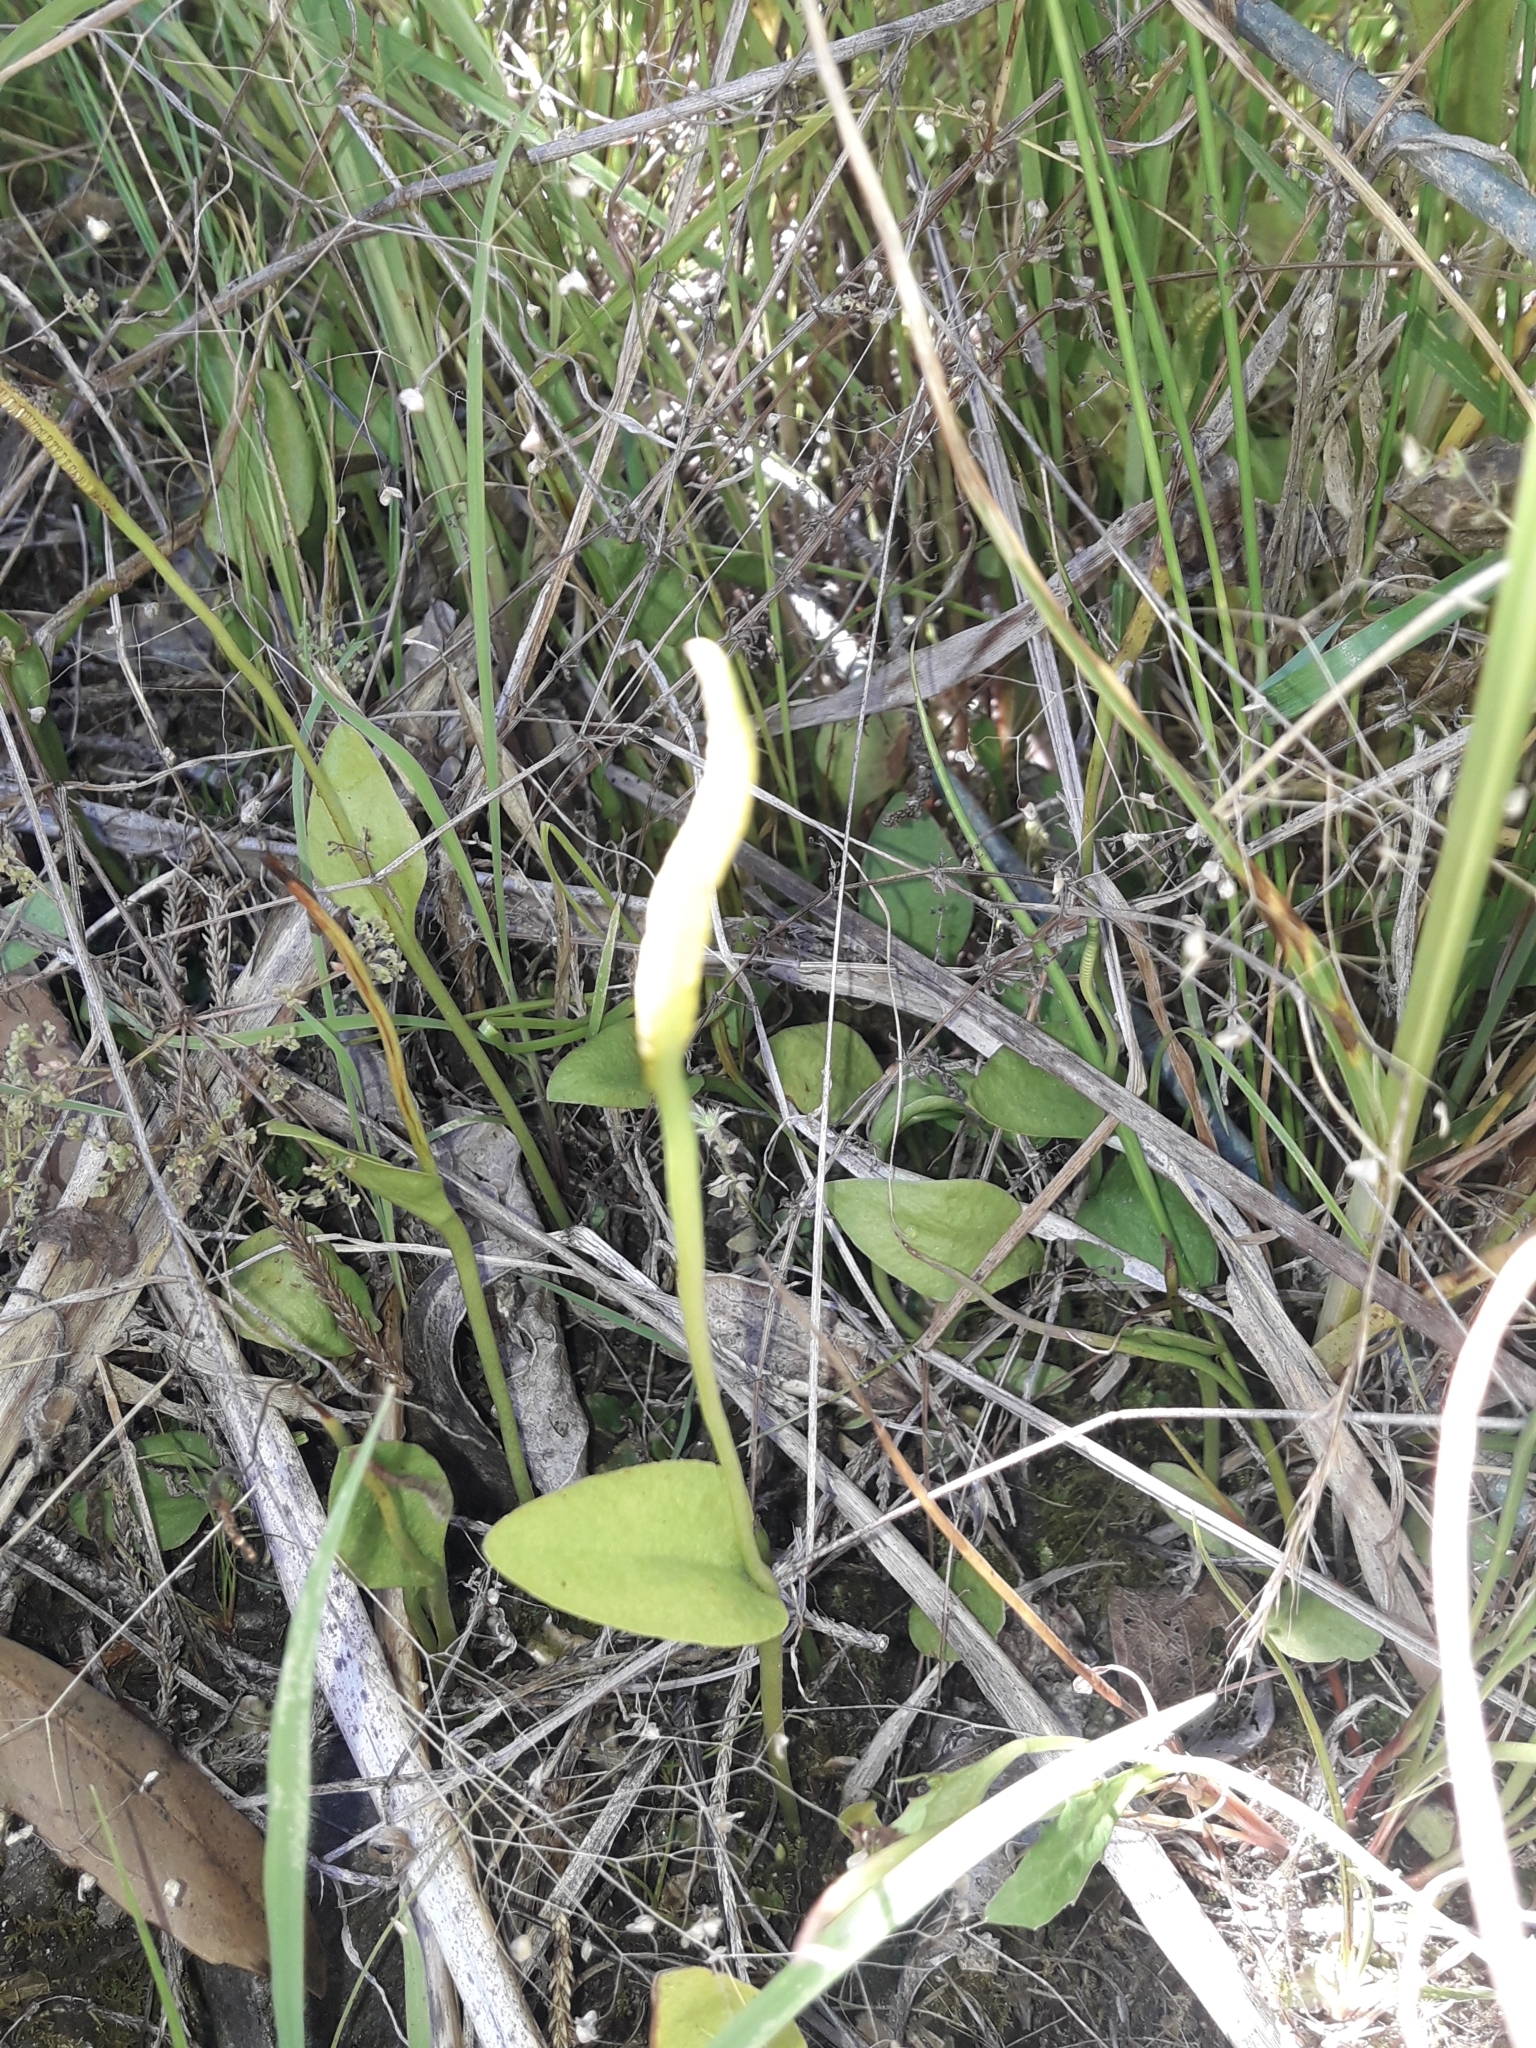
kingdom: Plantae
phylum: Tracheophyta
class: Polypodiopsida
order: Ophioglossales
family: Ophioglossaceae
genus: Ophioglossum
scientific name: Ophioglossum petiolatum
